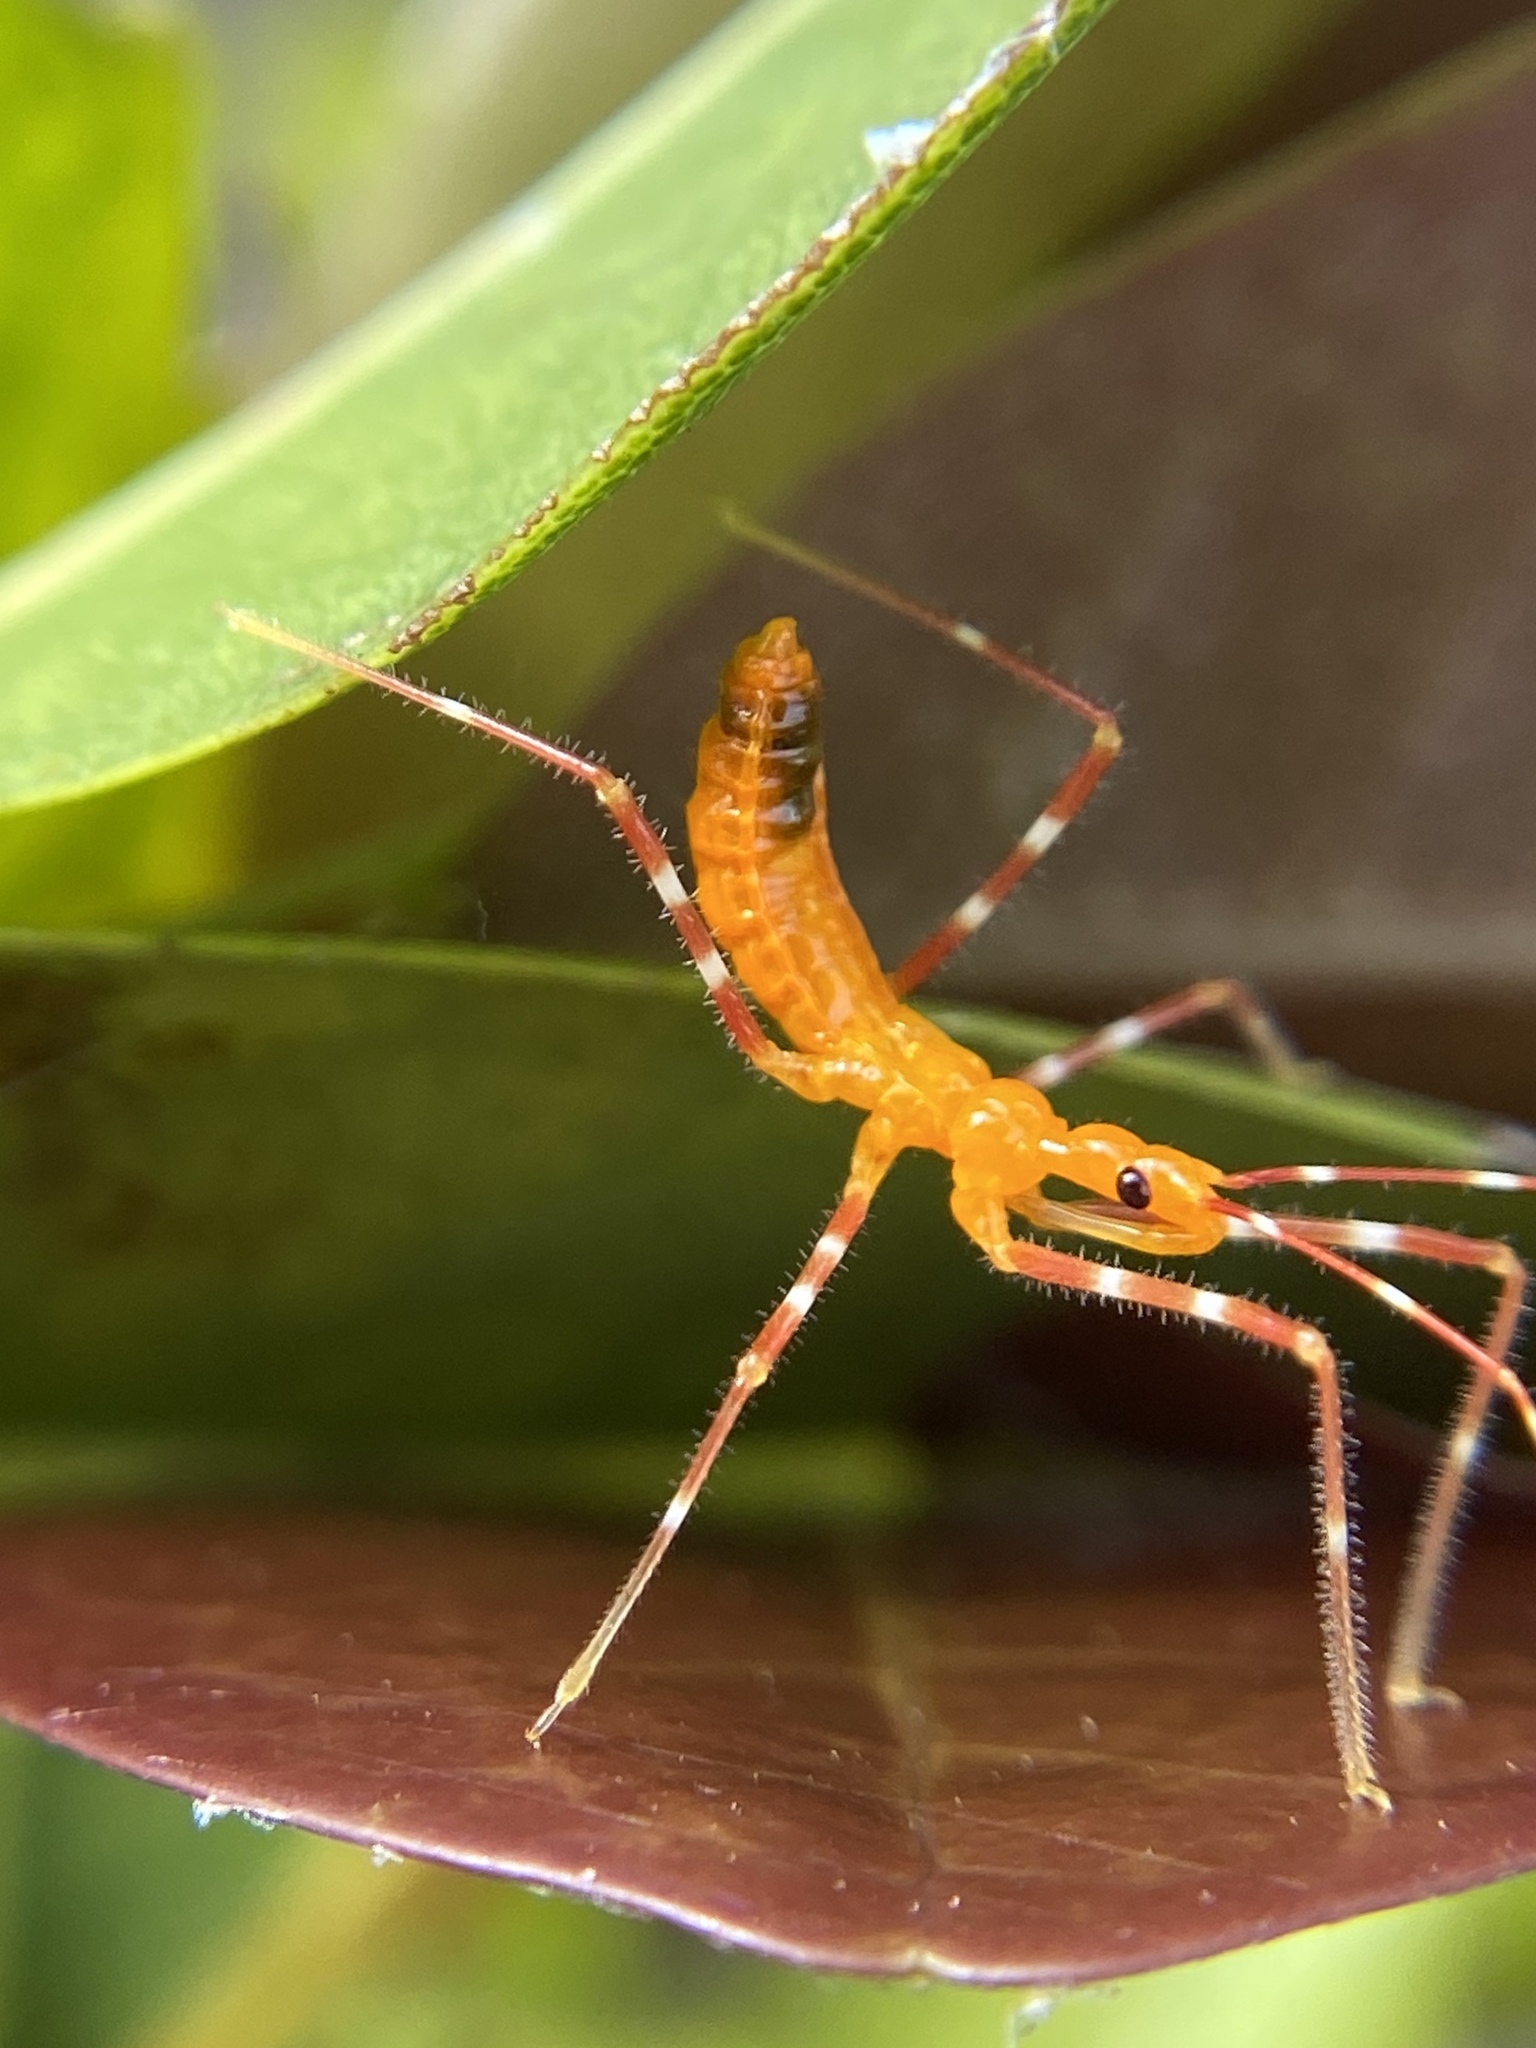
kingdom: Animalia
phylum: Arthropoda
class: Insecta
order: Hemiptera
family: Reduviidae
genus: Zelus
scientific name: Zelus longipes
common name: Milkweed assassin bug
